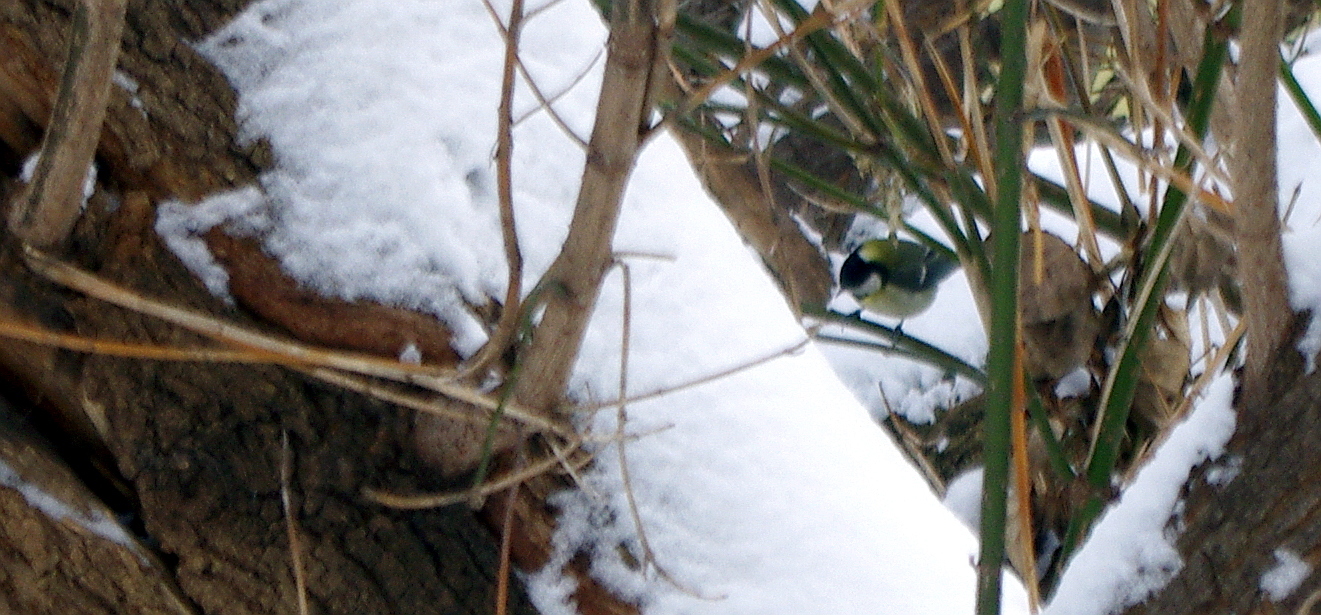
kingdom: Animalia
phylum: Chordata
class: Aves
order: Passeriformes
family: Paridae
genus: Parus
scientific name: Parus major
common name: Great tit
